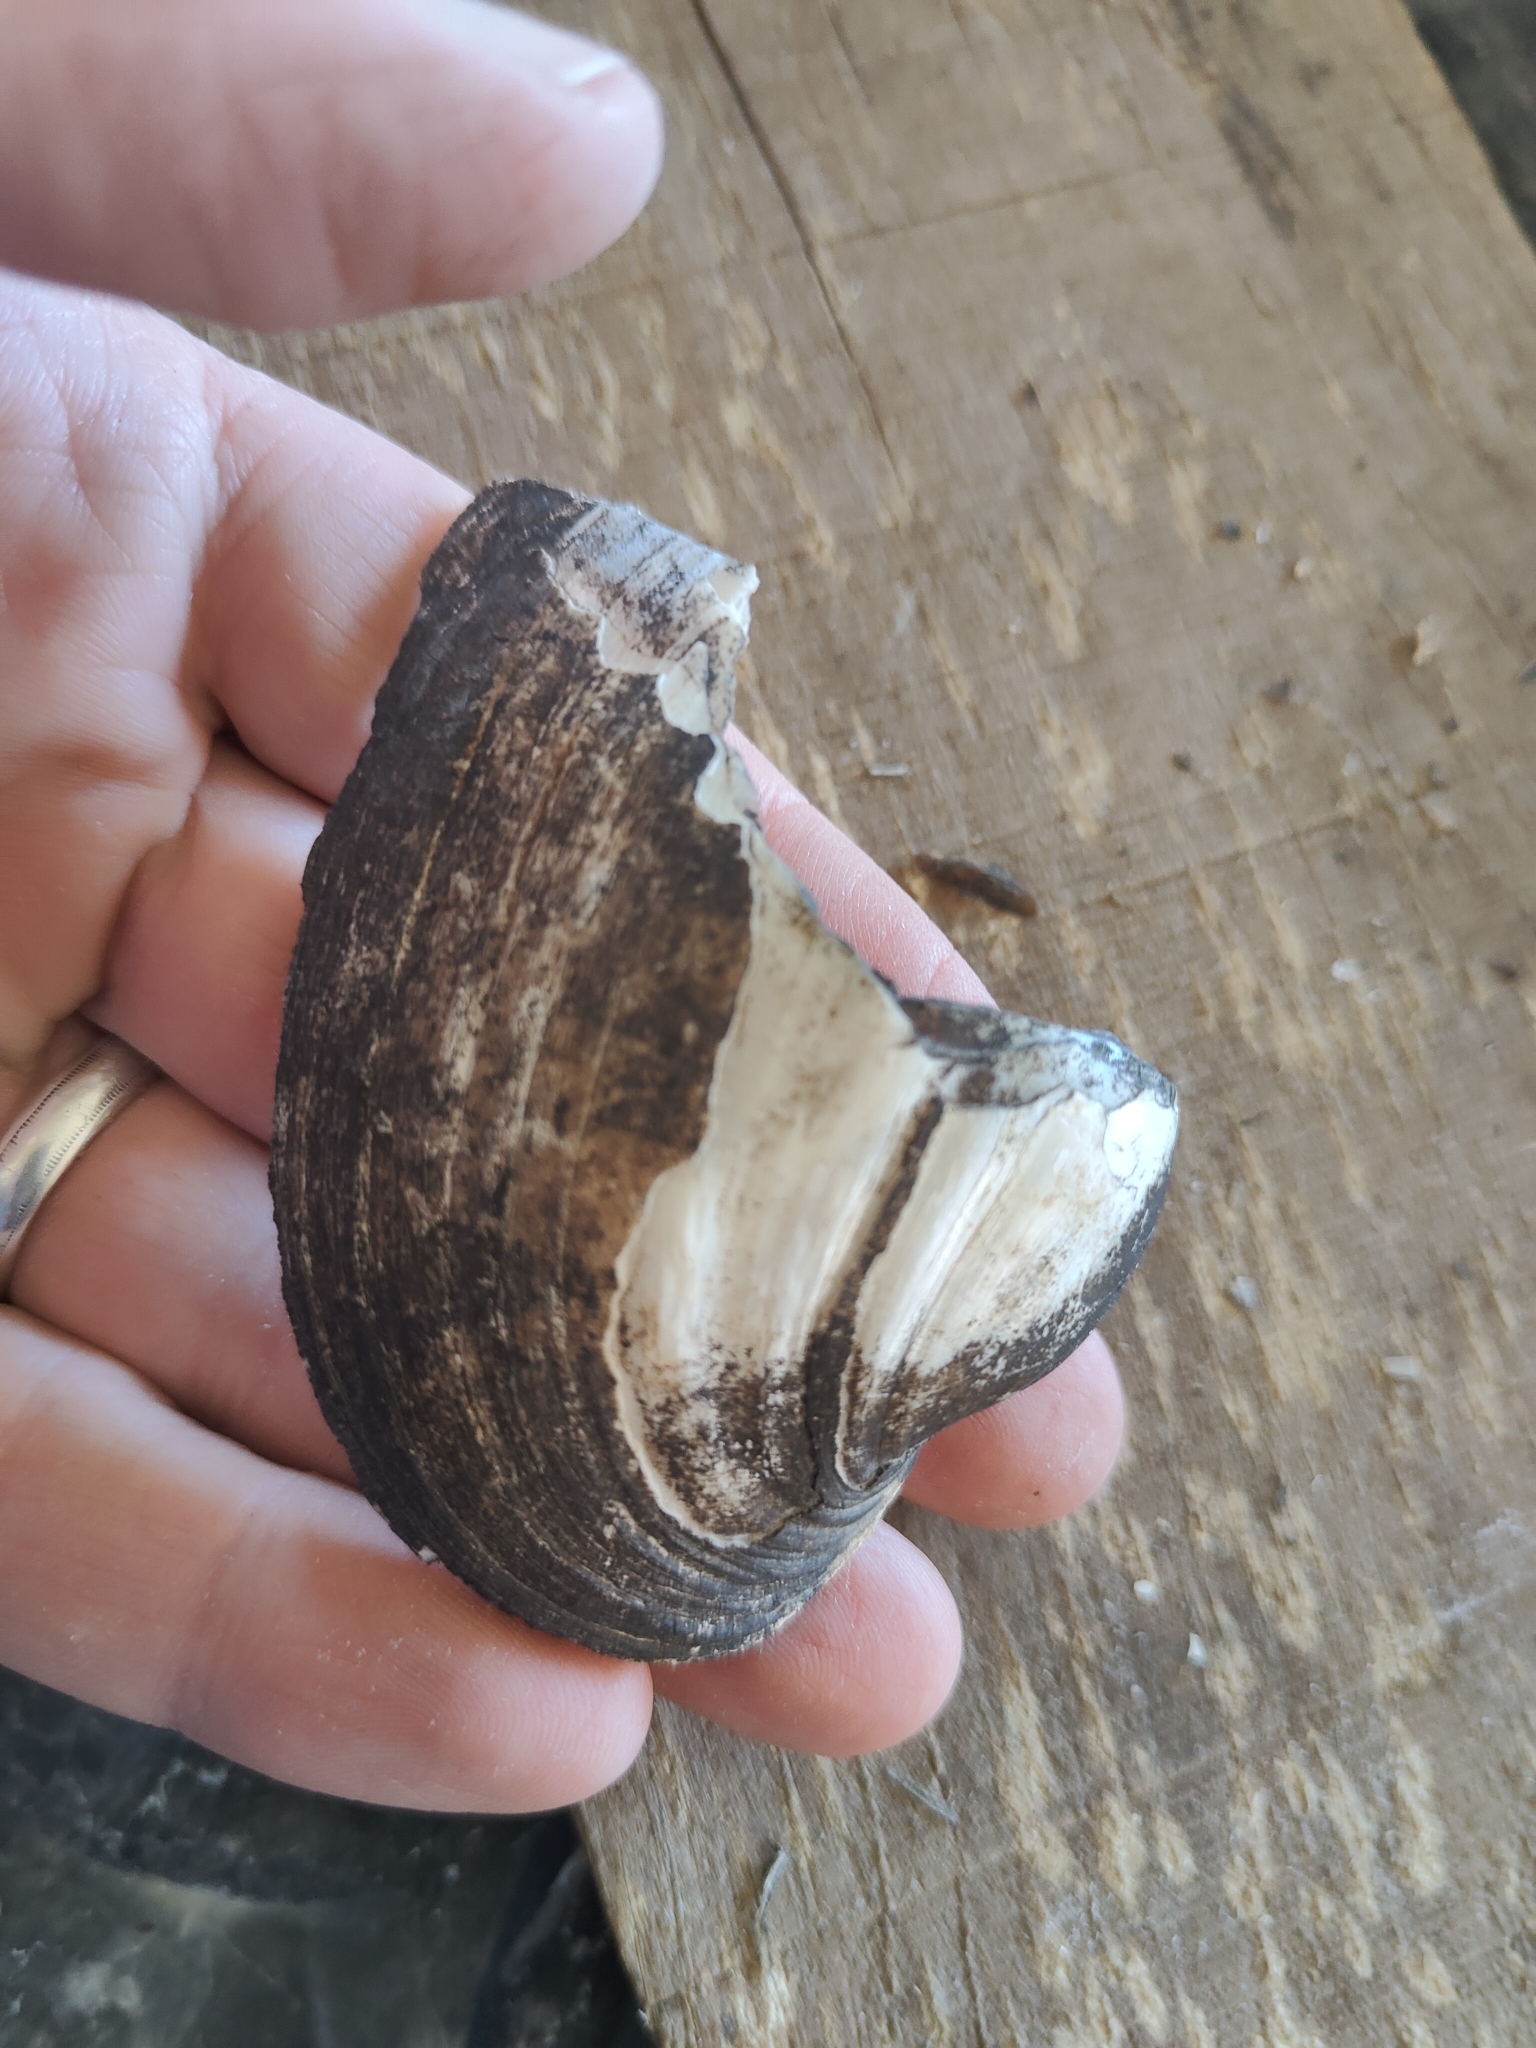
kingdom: Animalia
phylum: Mollusca
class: Bivalvia
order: Unionida
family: Unionidae
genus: Lampsilis
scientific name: Lampsilis cardium
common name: Plain pocketbook
